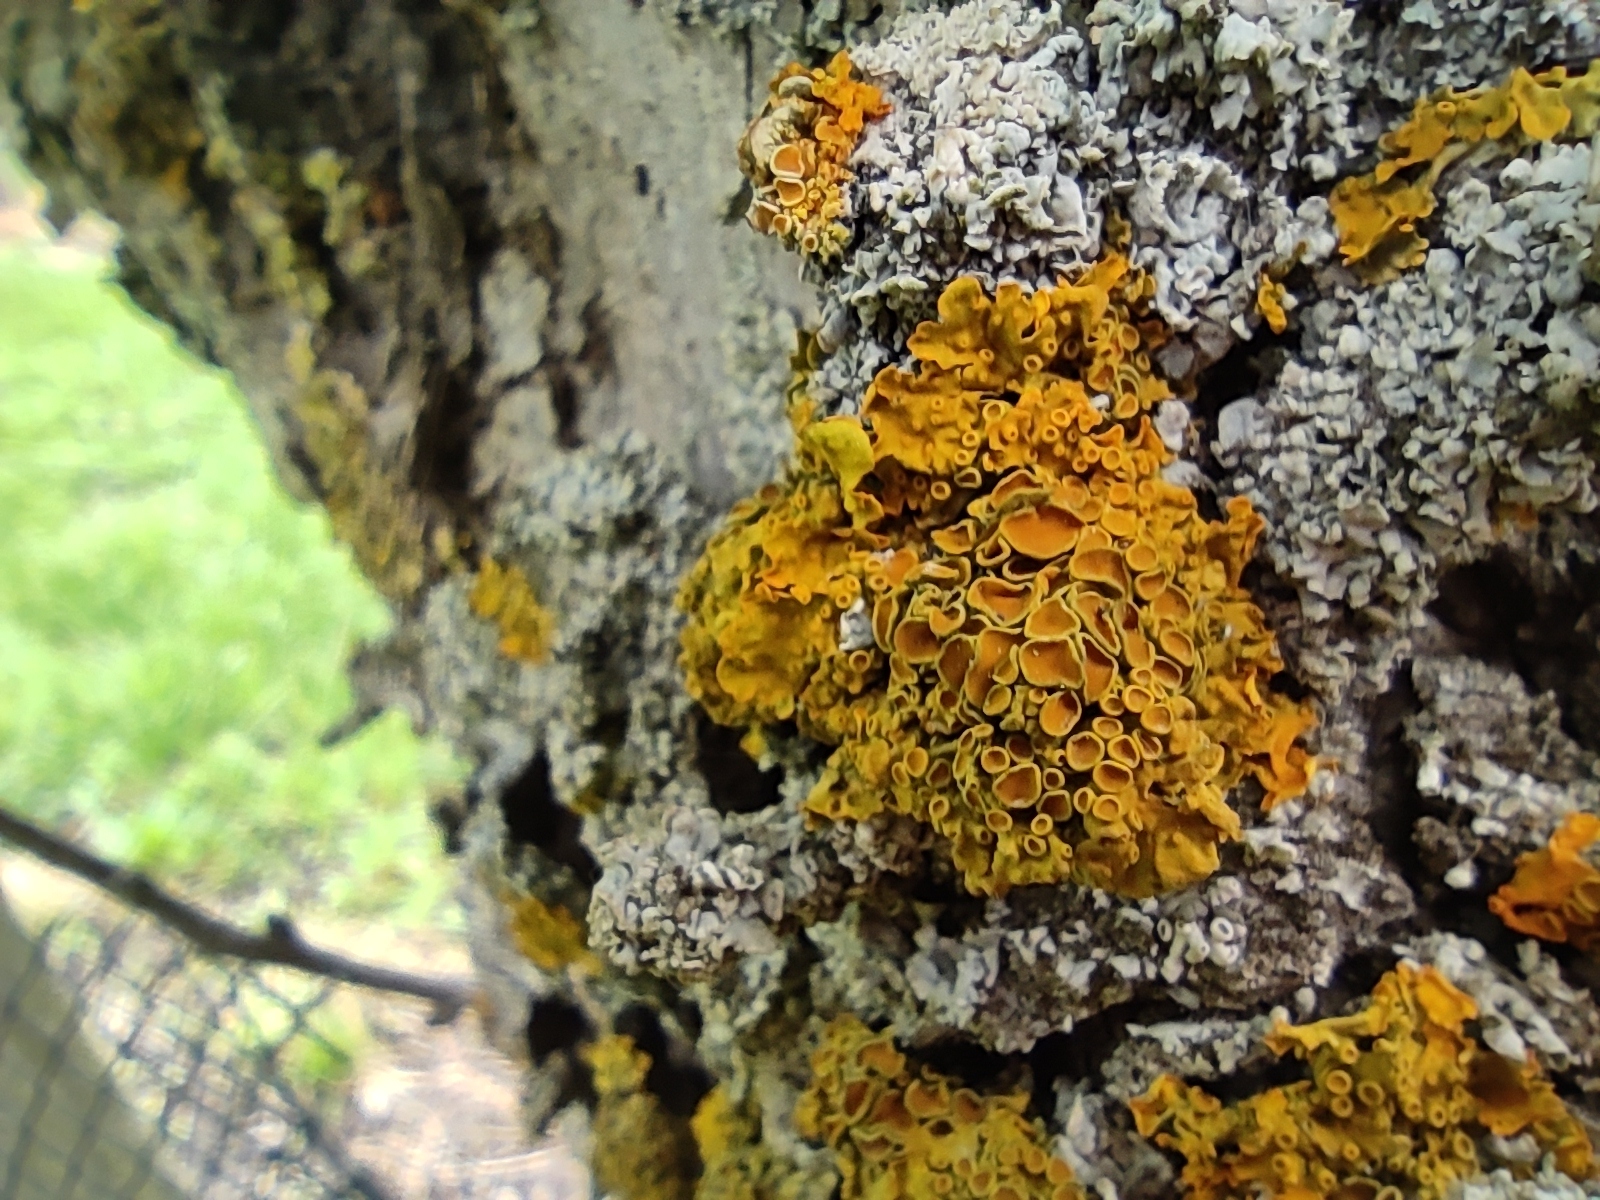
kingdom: Fungi
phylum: Ascomycota
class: Lecanoromycetes
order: Teloschistales
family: Teloschistaceae
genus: Xanthoria
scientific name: Xanthoria parietina
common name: Common orange lichen
